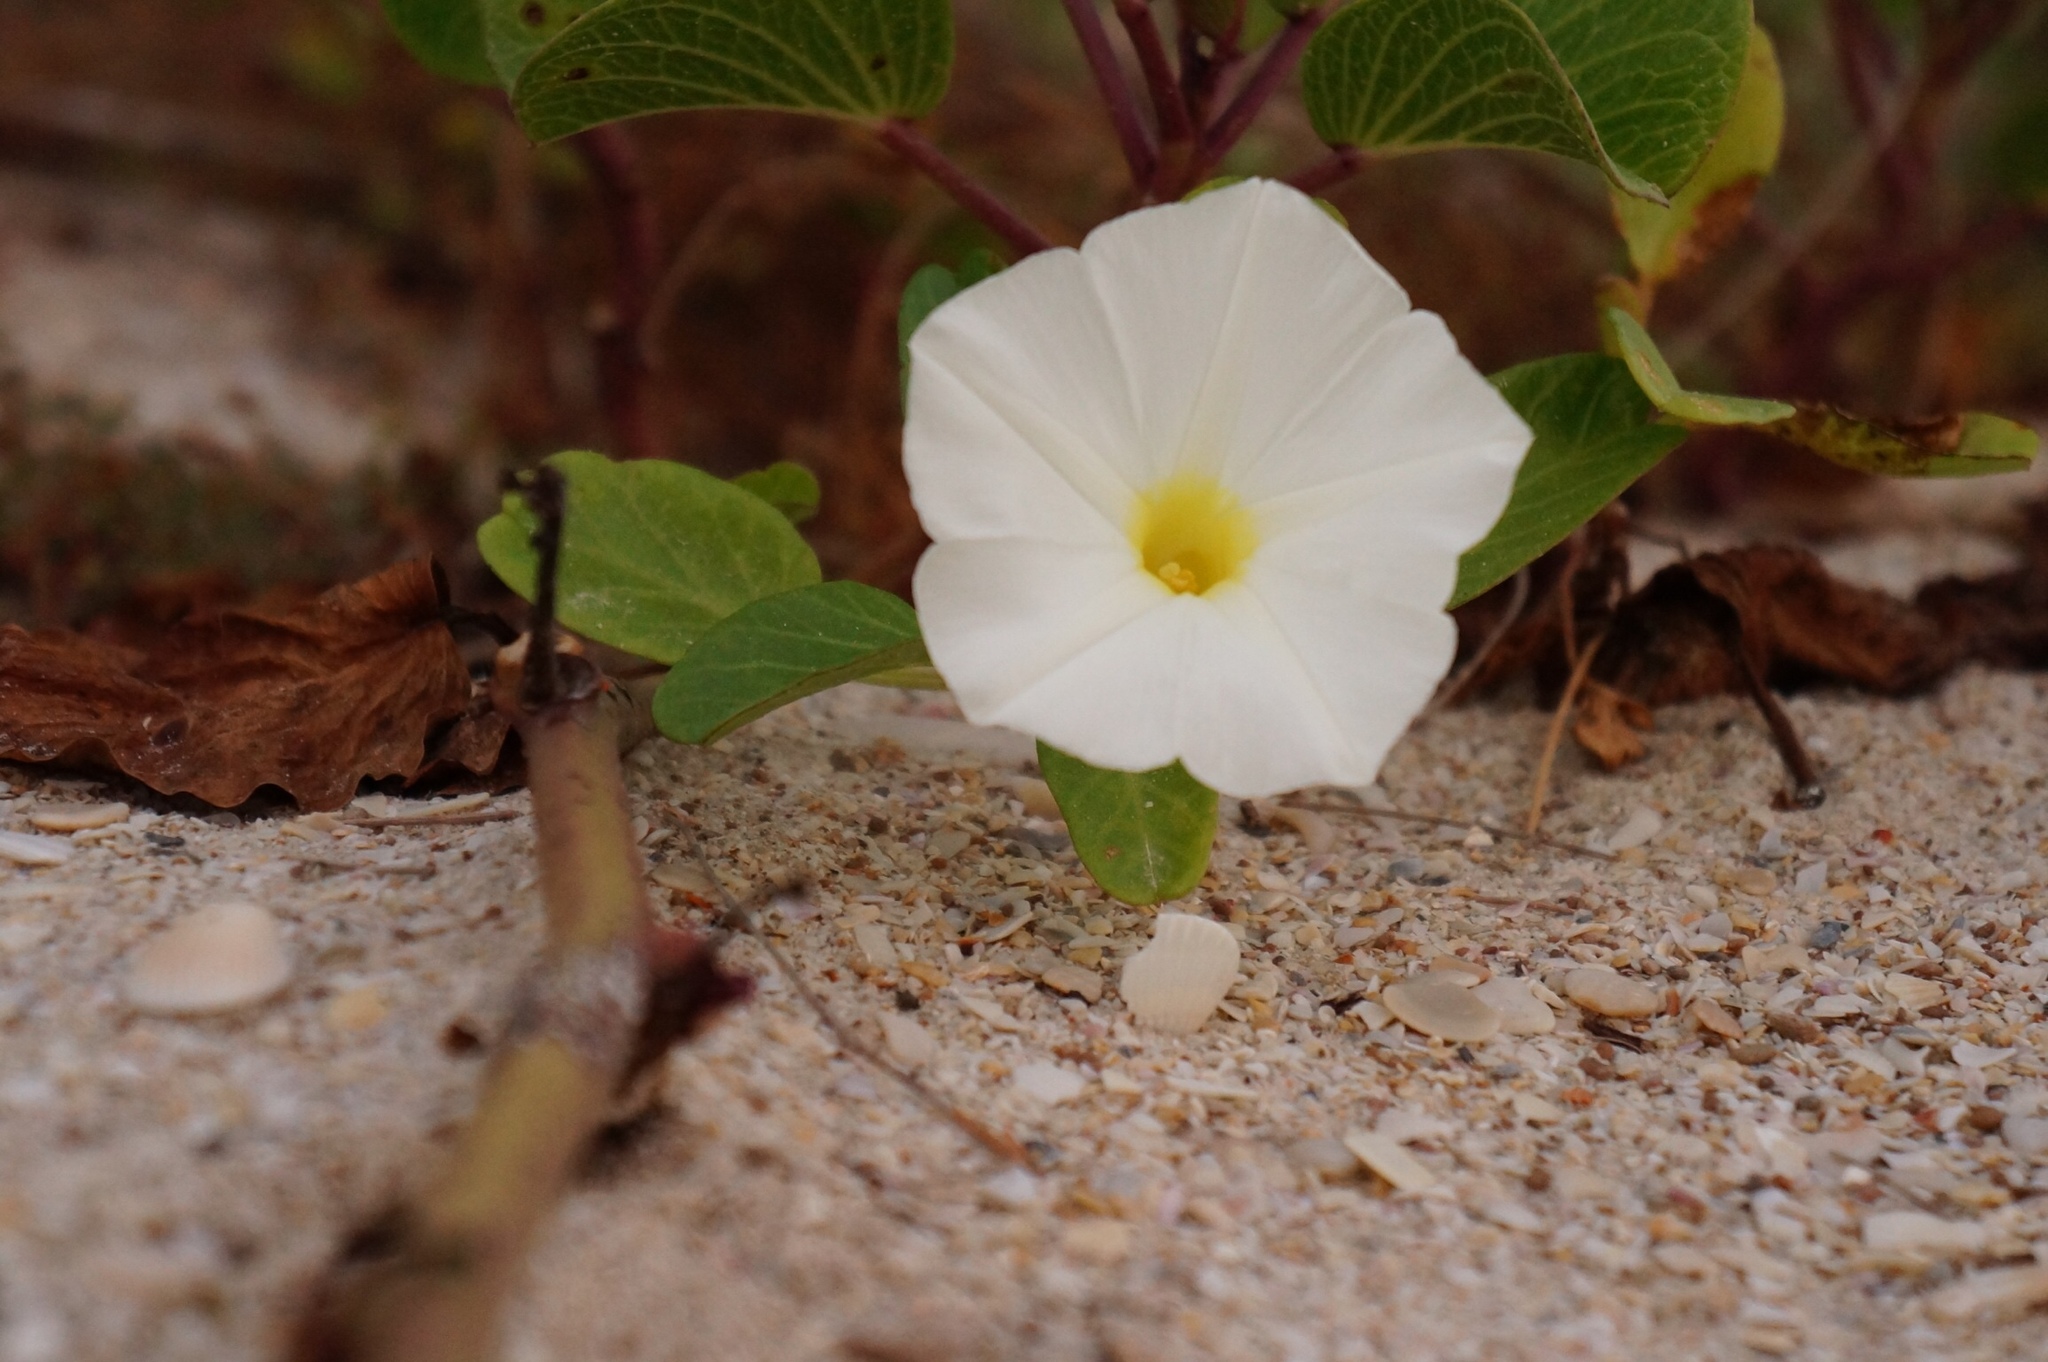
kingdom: Plantae
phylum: Tracheophyta
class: Magnoliopsida
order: Solanales
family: Convolvulaceae
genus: Ipomoea
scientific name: Ipomoea imperati
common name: Fiddle-leaf morning-glory
